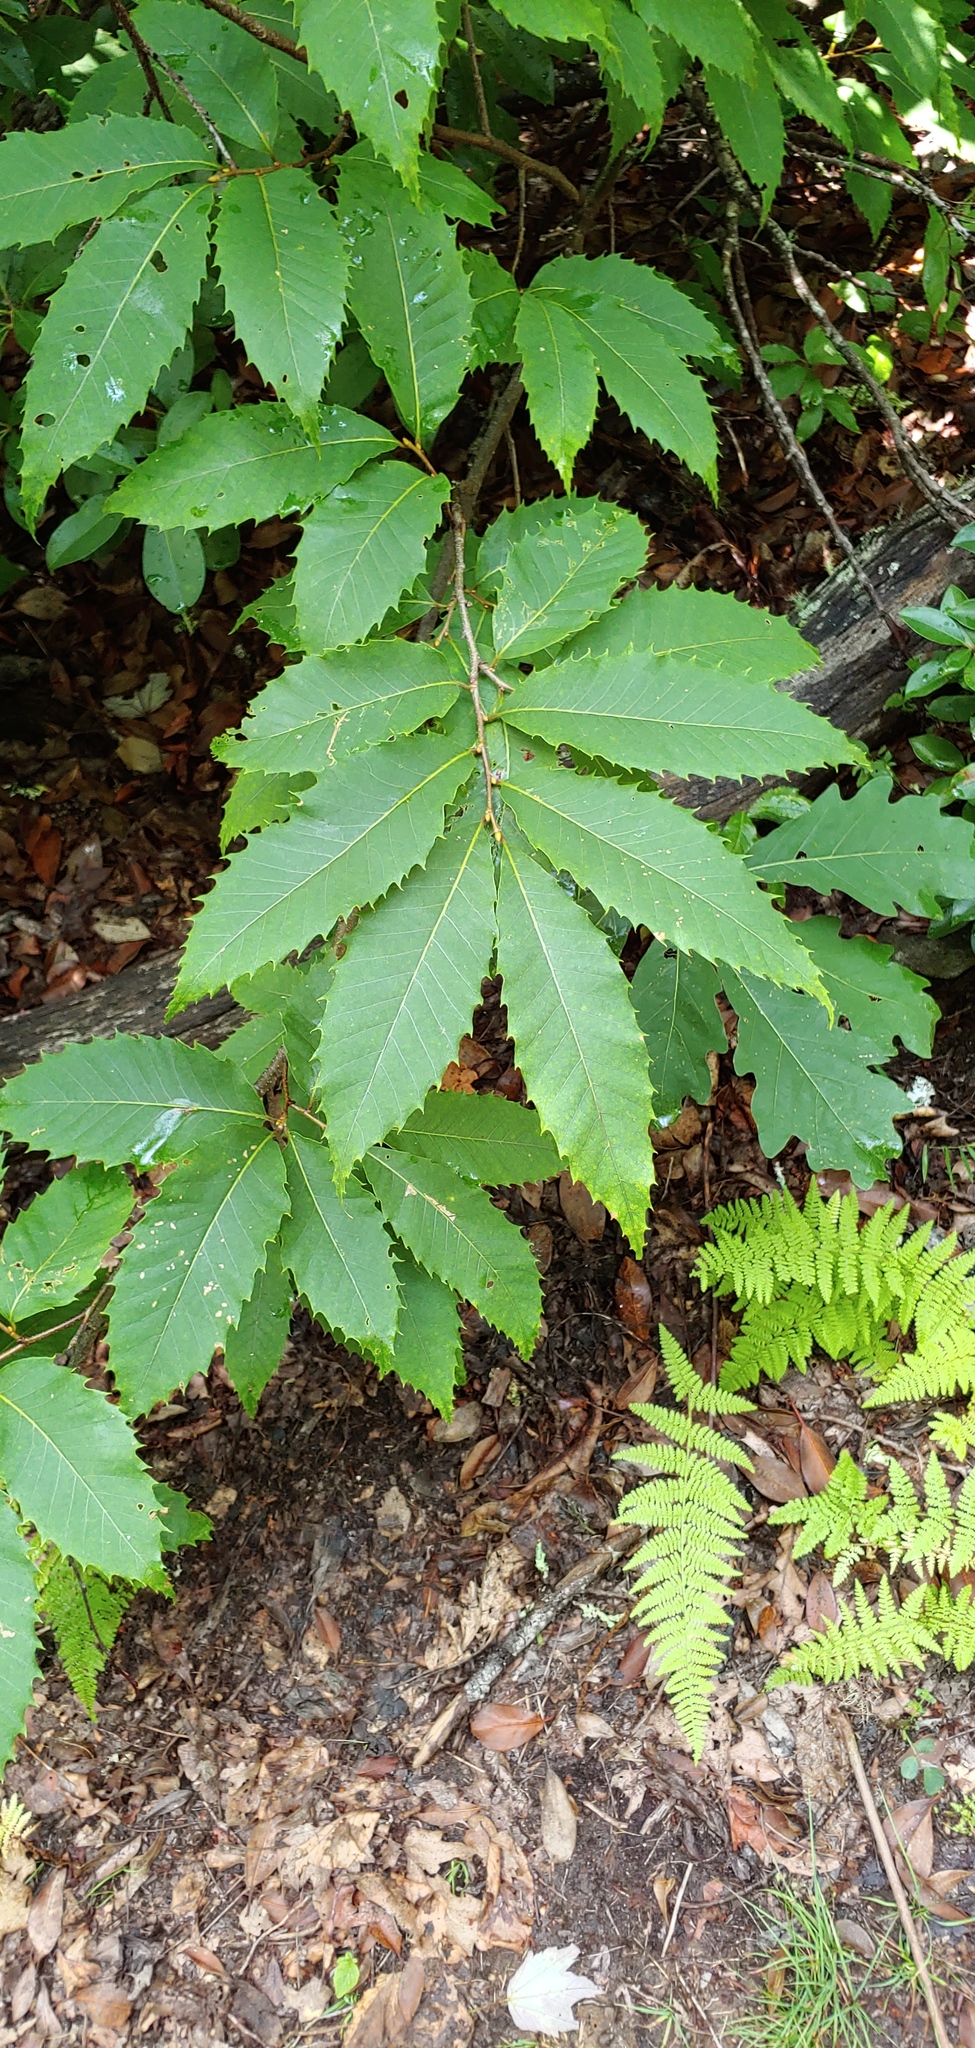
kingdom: Plantae
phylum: Tracheophyta
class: Magnoliopsida
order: Fagales
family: Fagaceae
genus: Castanea
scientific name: Castanea dentata
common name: American chestnut
